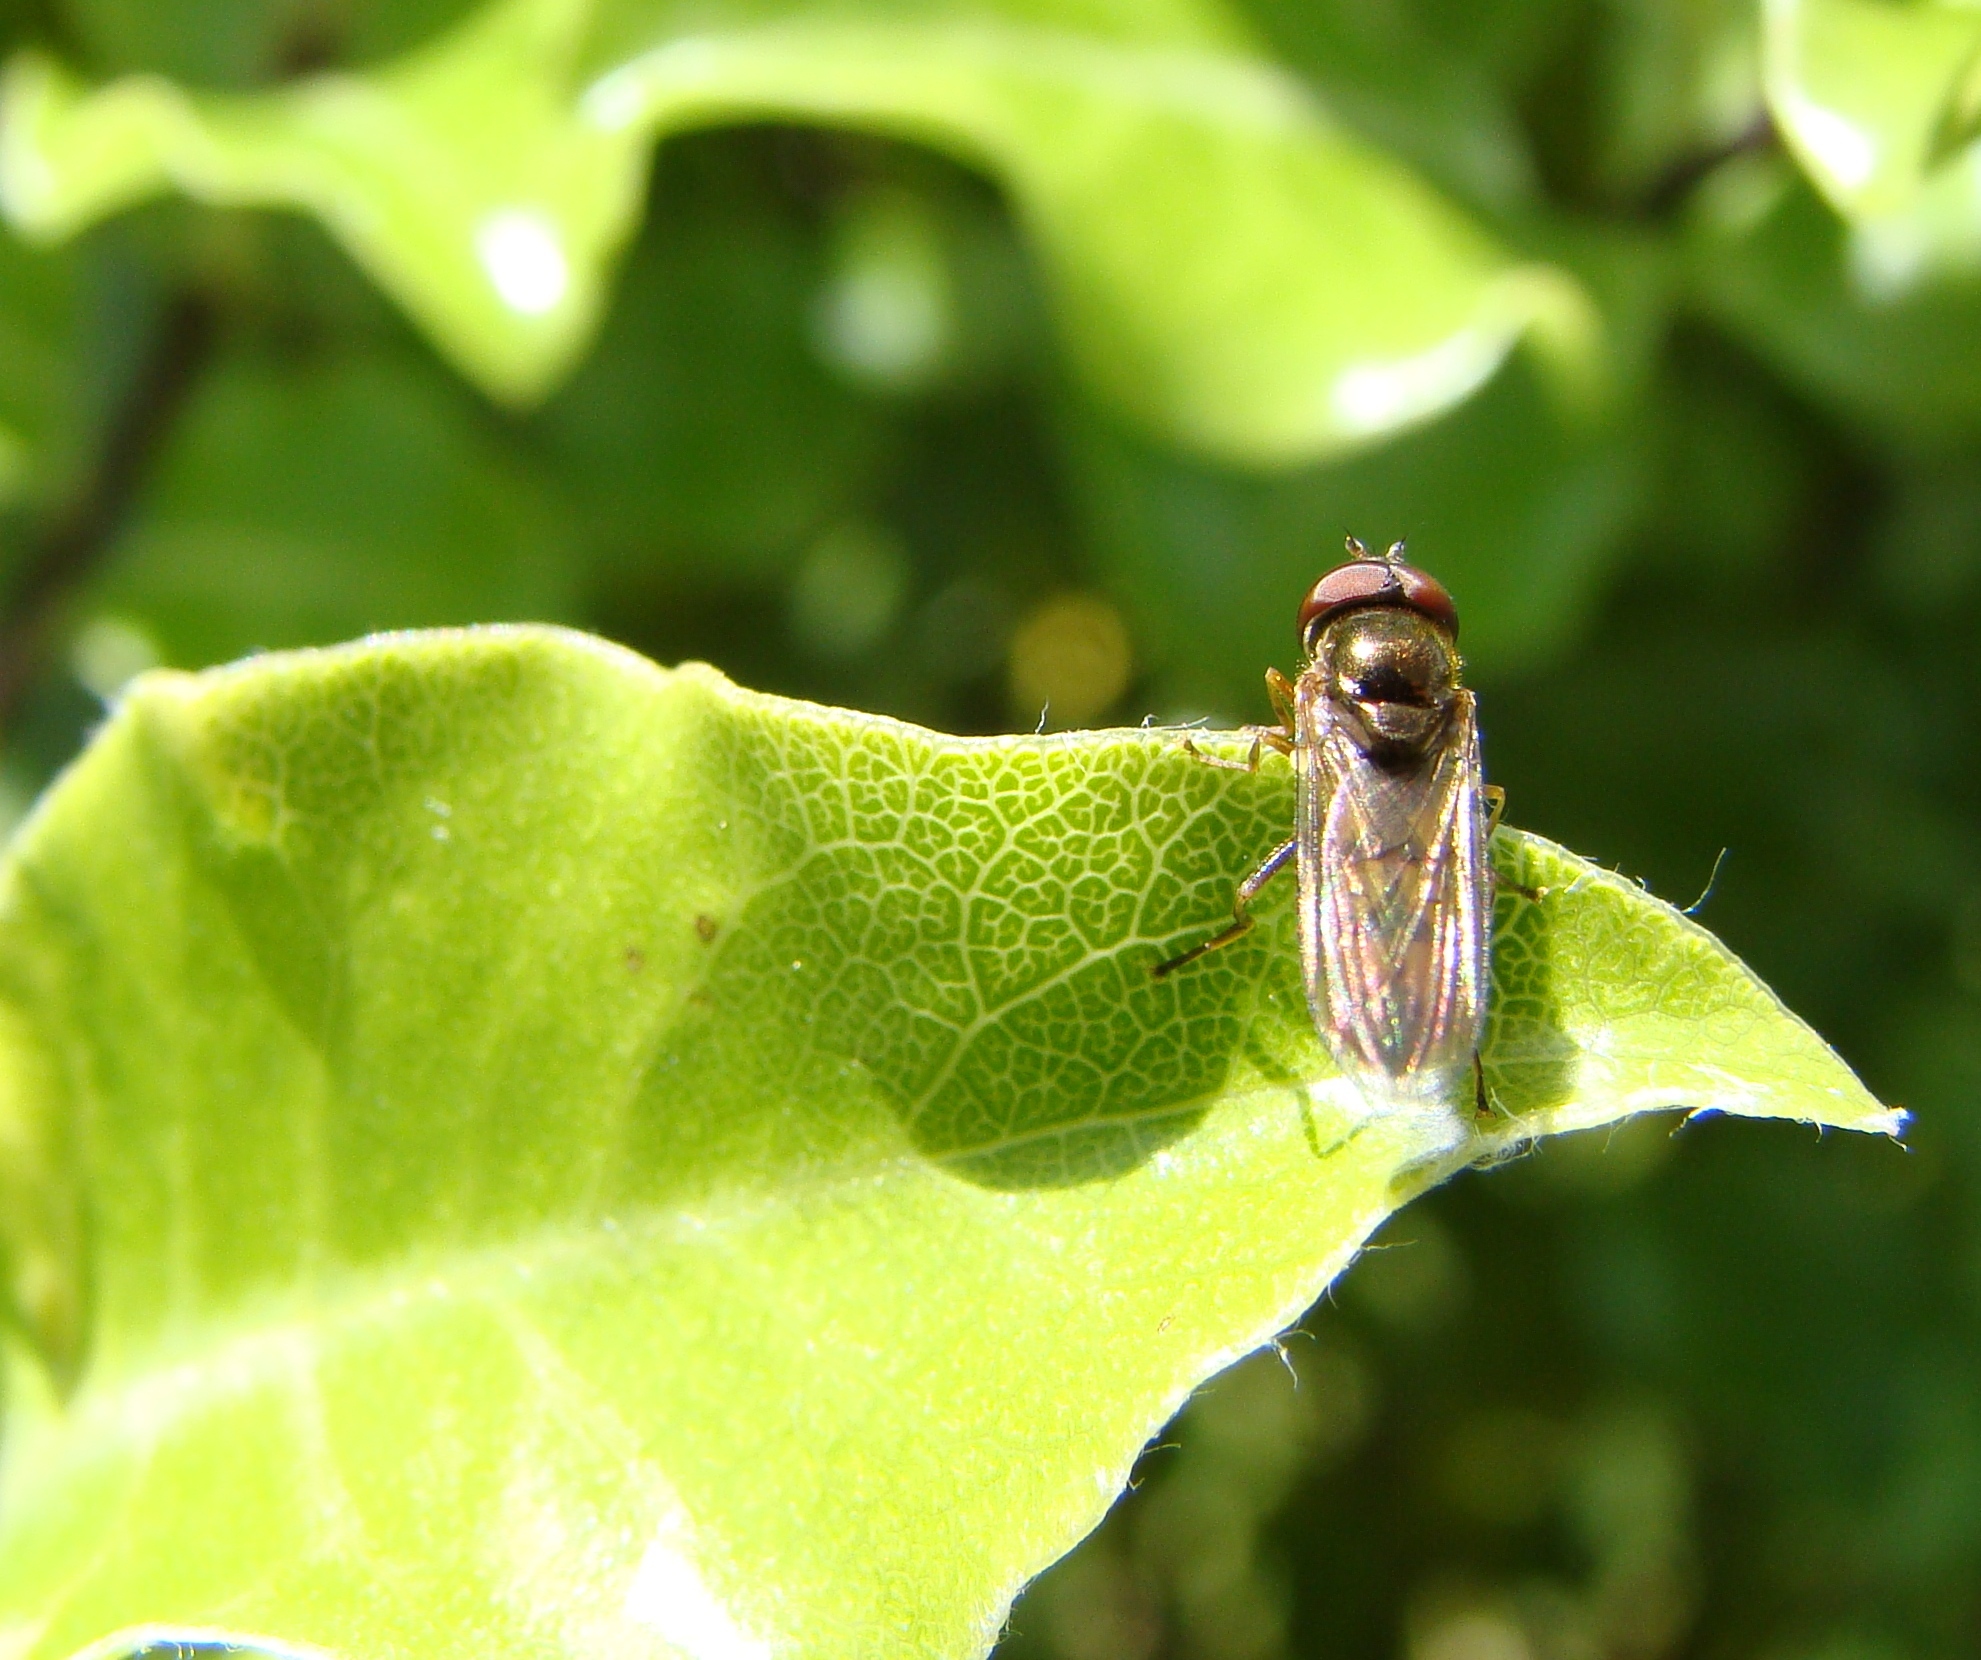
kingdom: Animalia
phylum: Arthropoda
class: Insecta
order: Diptera
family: Syrphidae
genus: Melanostoma
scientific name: Melanostoma fasciatum
